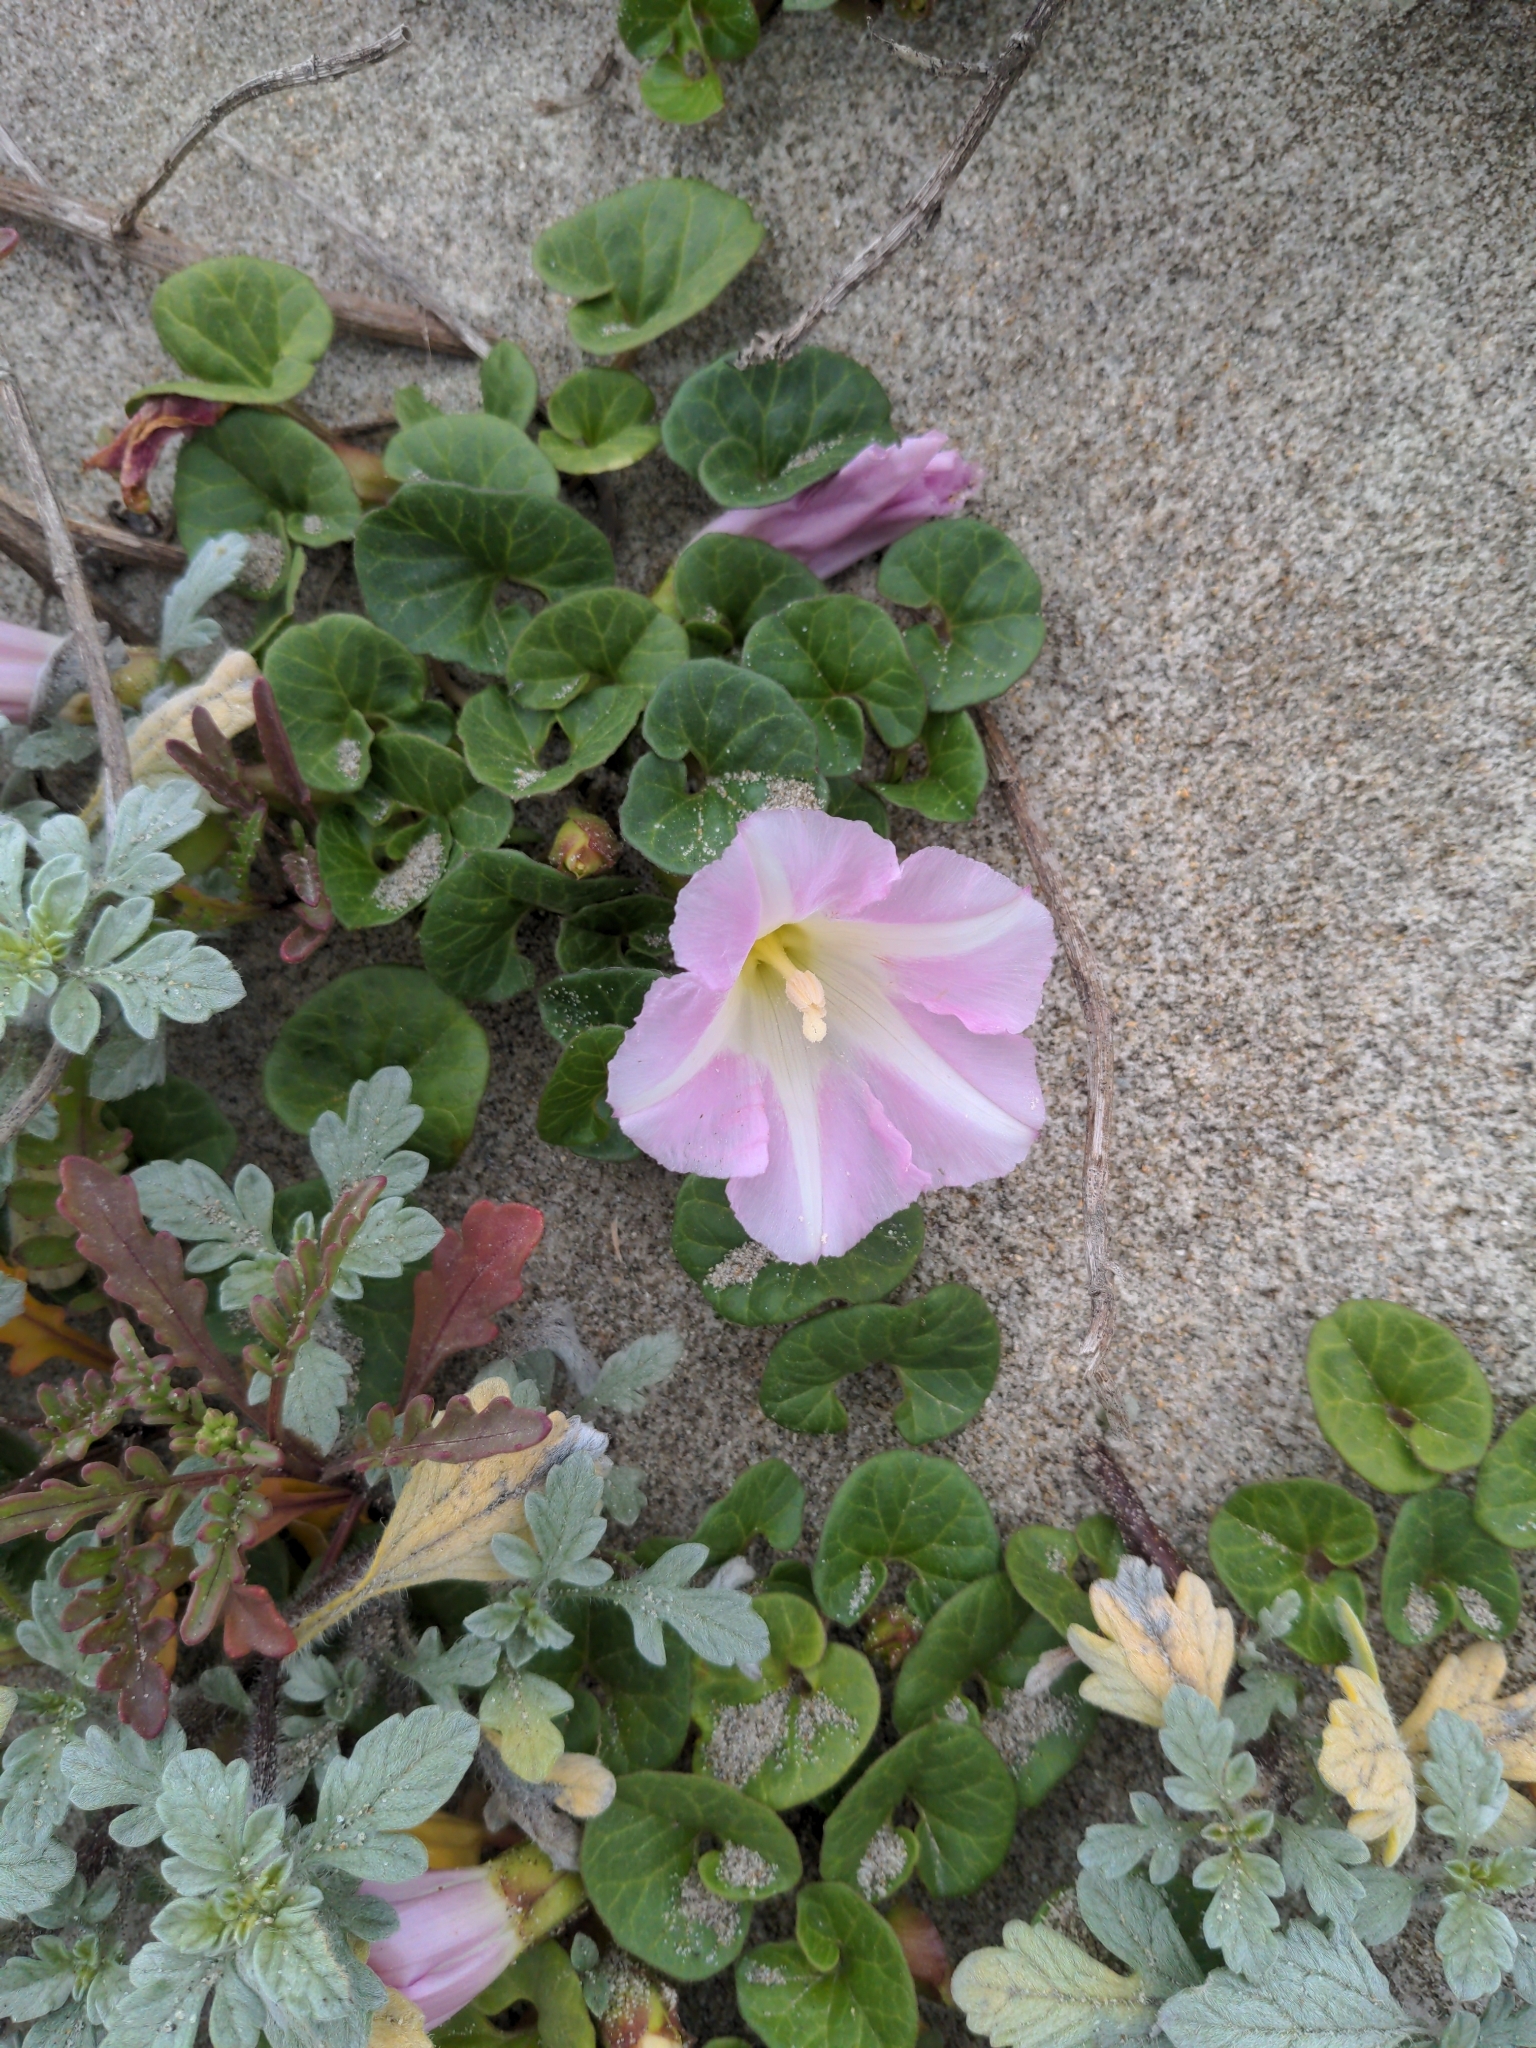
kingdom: Plantae
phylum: Tracheophyta
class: Magnoliopsida
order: Solanales
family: Convolvulaceae
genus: Calystegia
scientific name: Calystegia soldanella
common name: Sea bindweed
